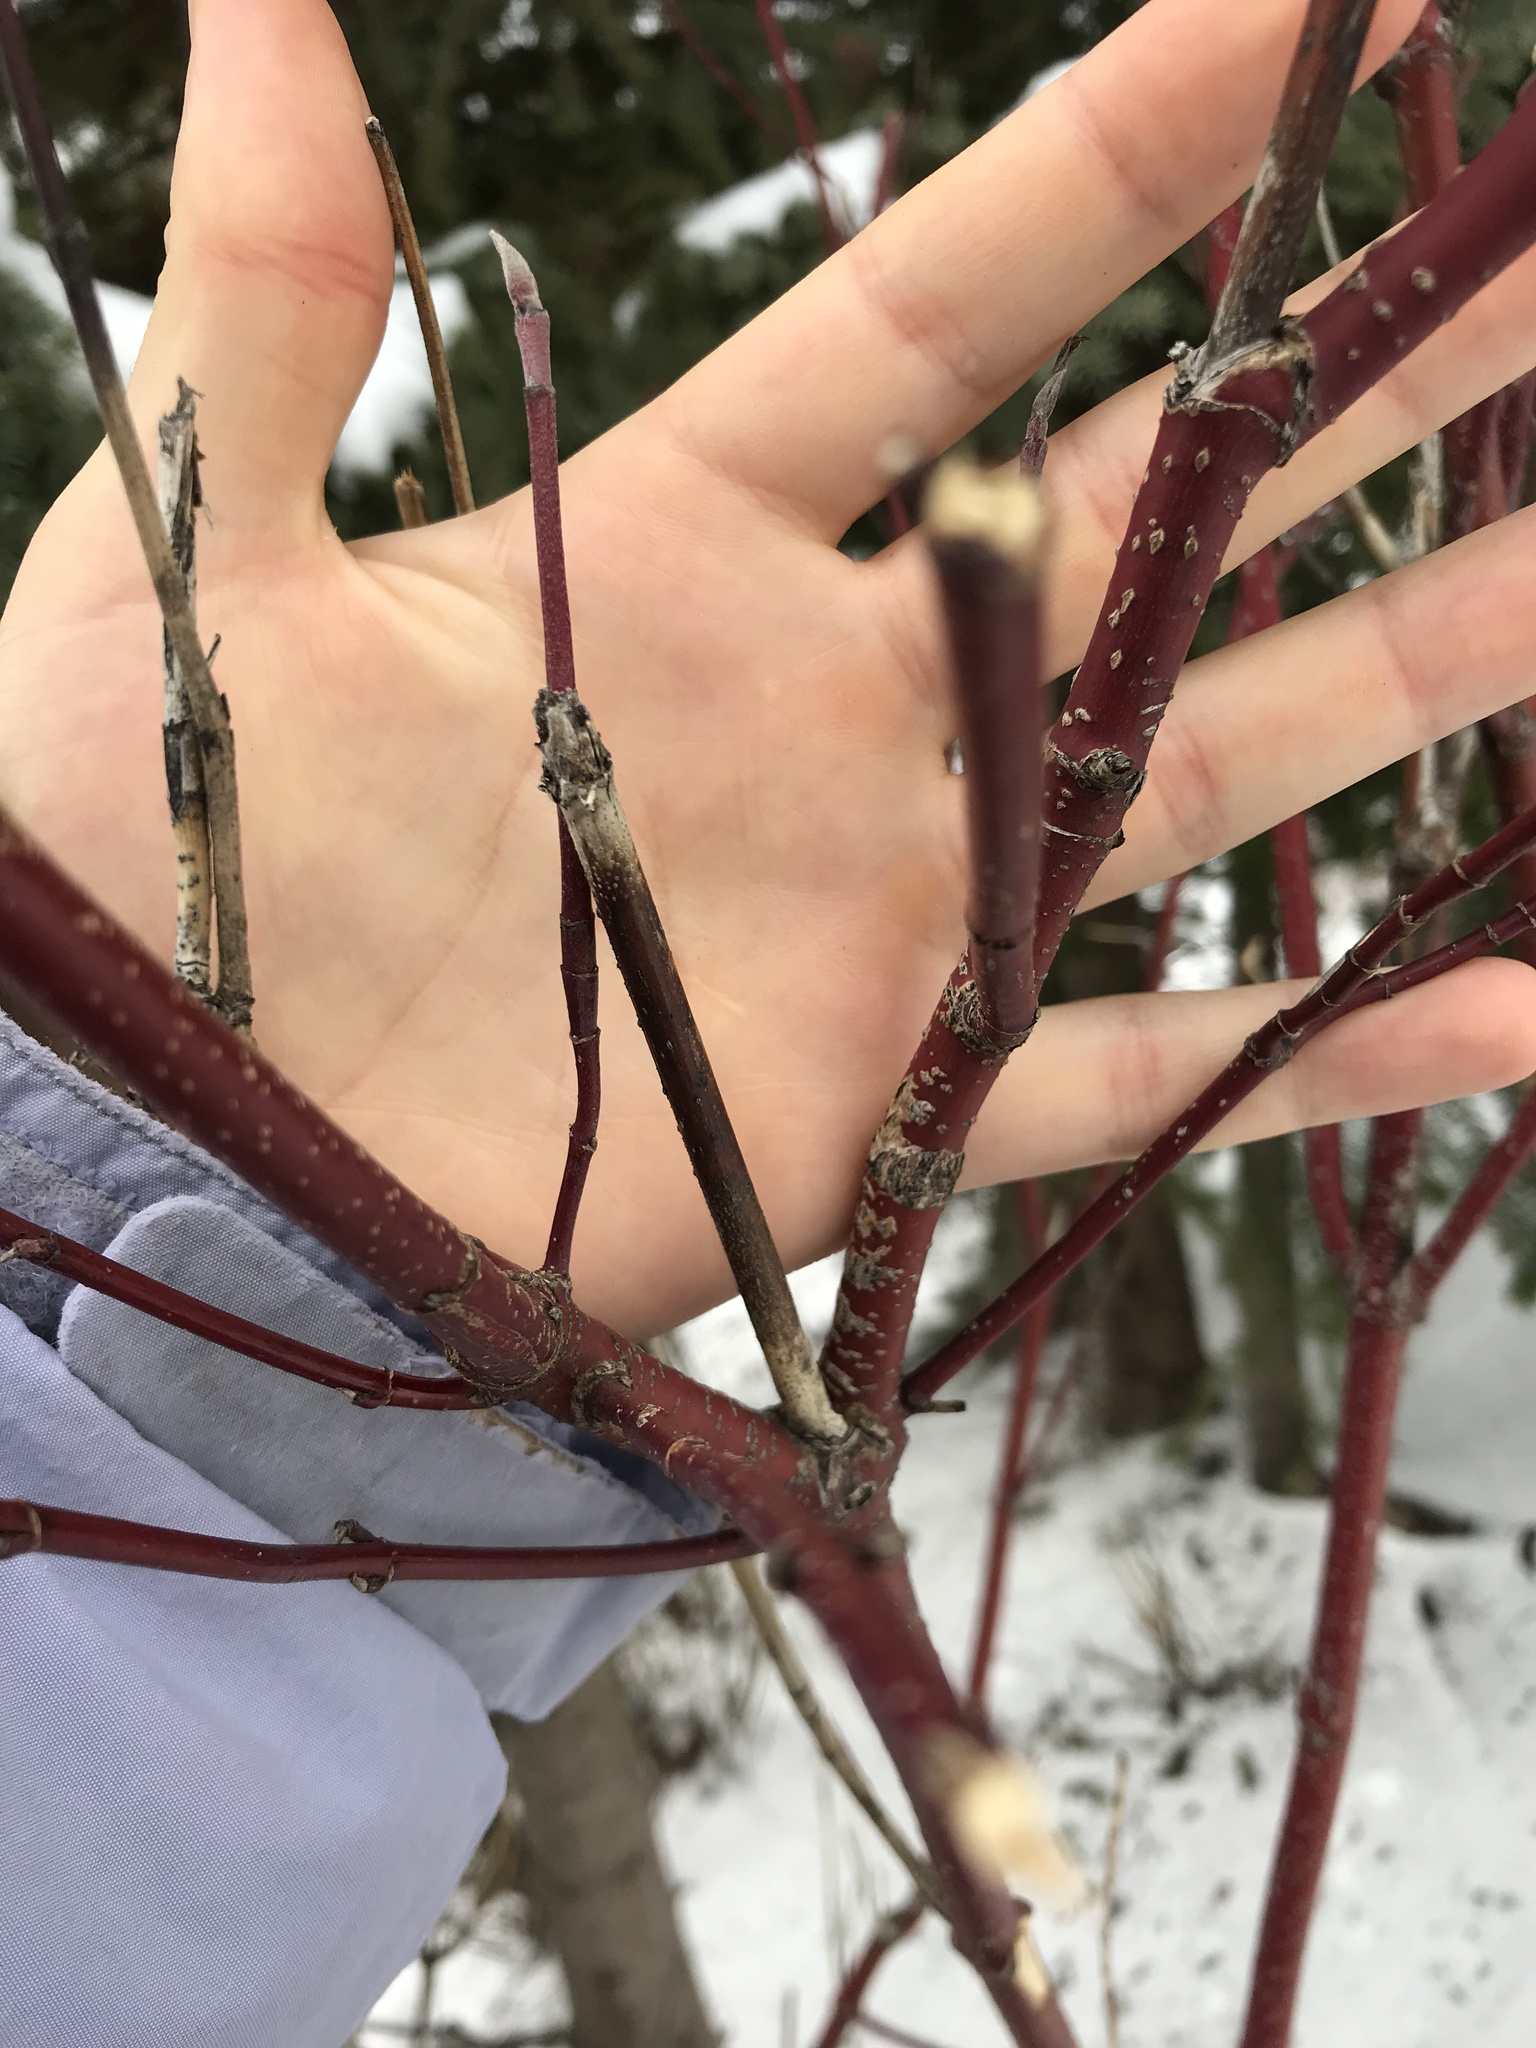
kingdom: Plantae
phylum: Tracheophyta
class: Magnoliopsida
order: Cornales
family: Cornaceae
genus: Cornus
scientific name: Cornus sericea
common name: Red-osier dogwood
